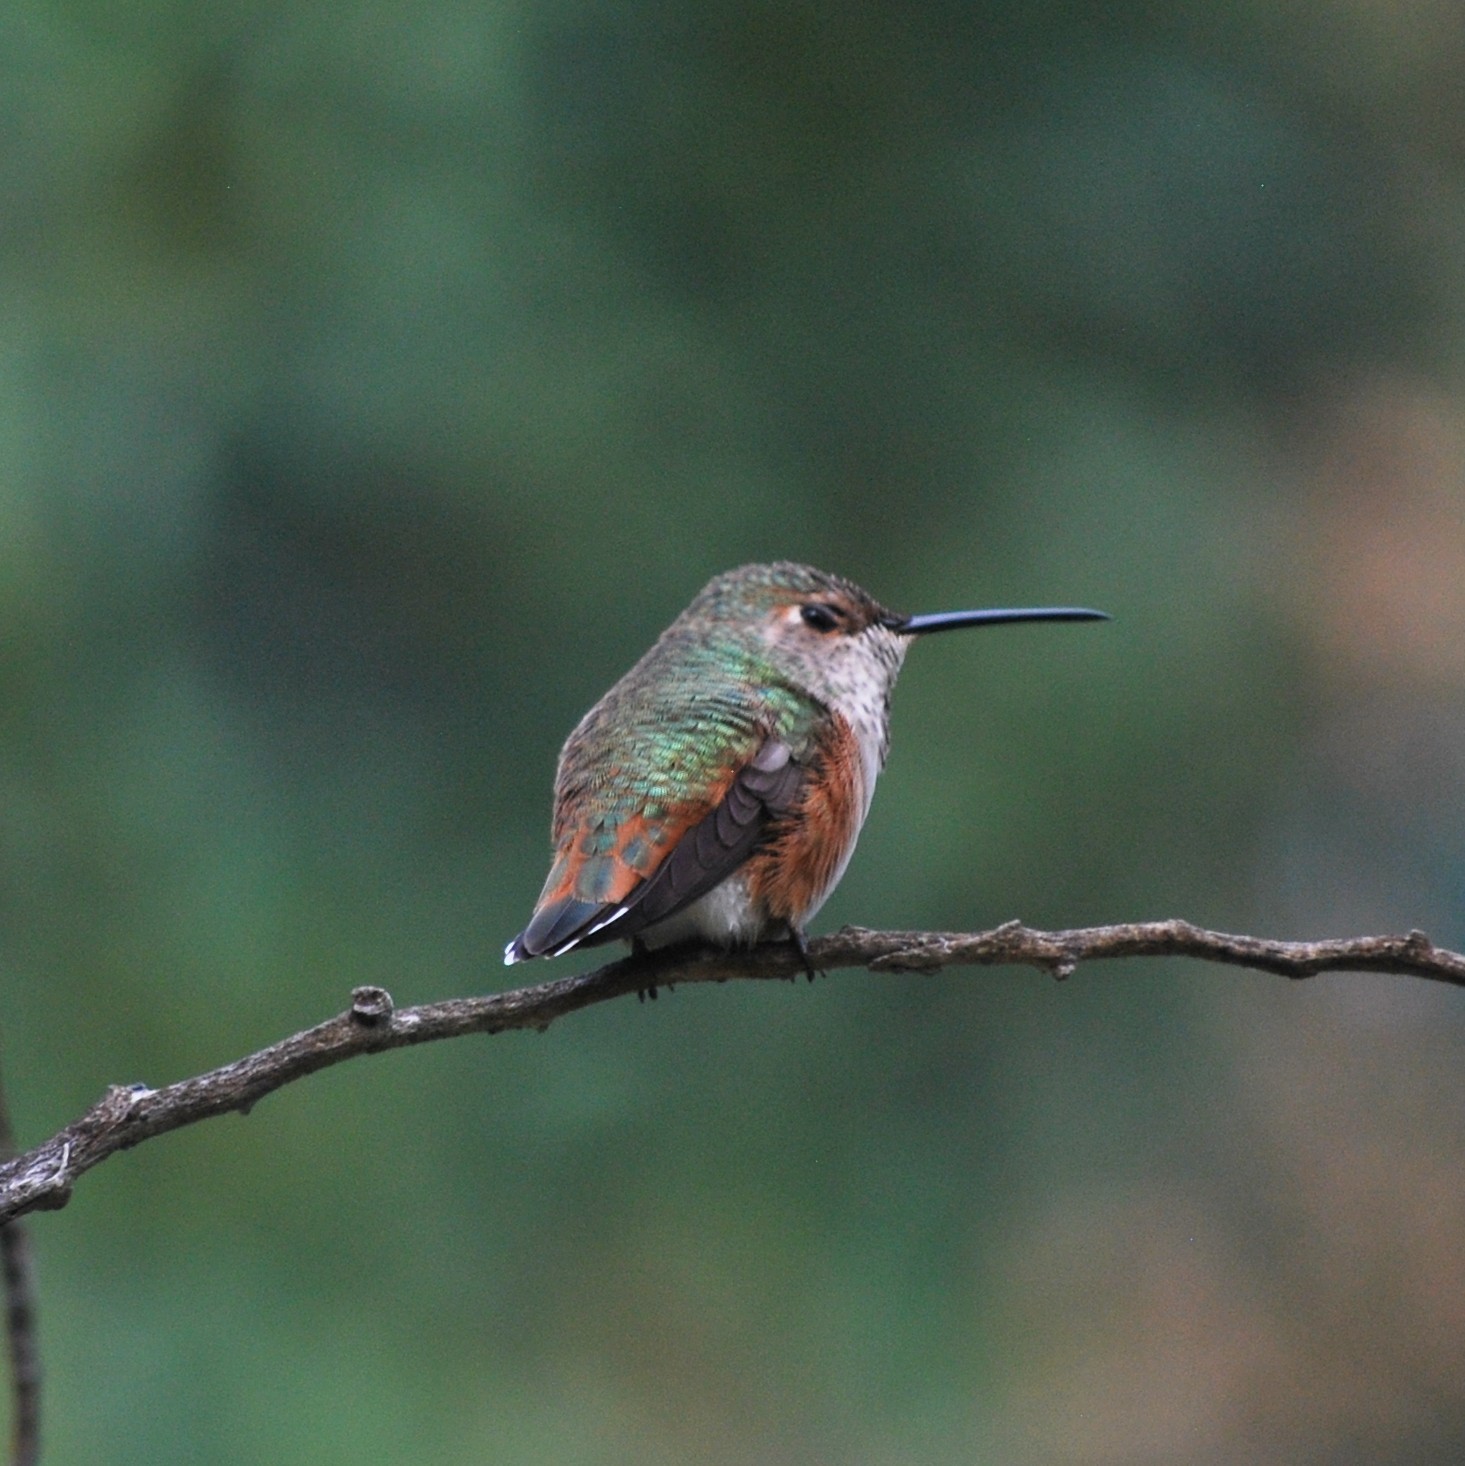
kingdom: Animalia
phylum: Chordata
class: Aves
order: Apodiformes
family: Trochilidae
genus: Selasphorus
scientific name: Selasphorus
